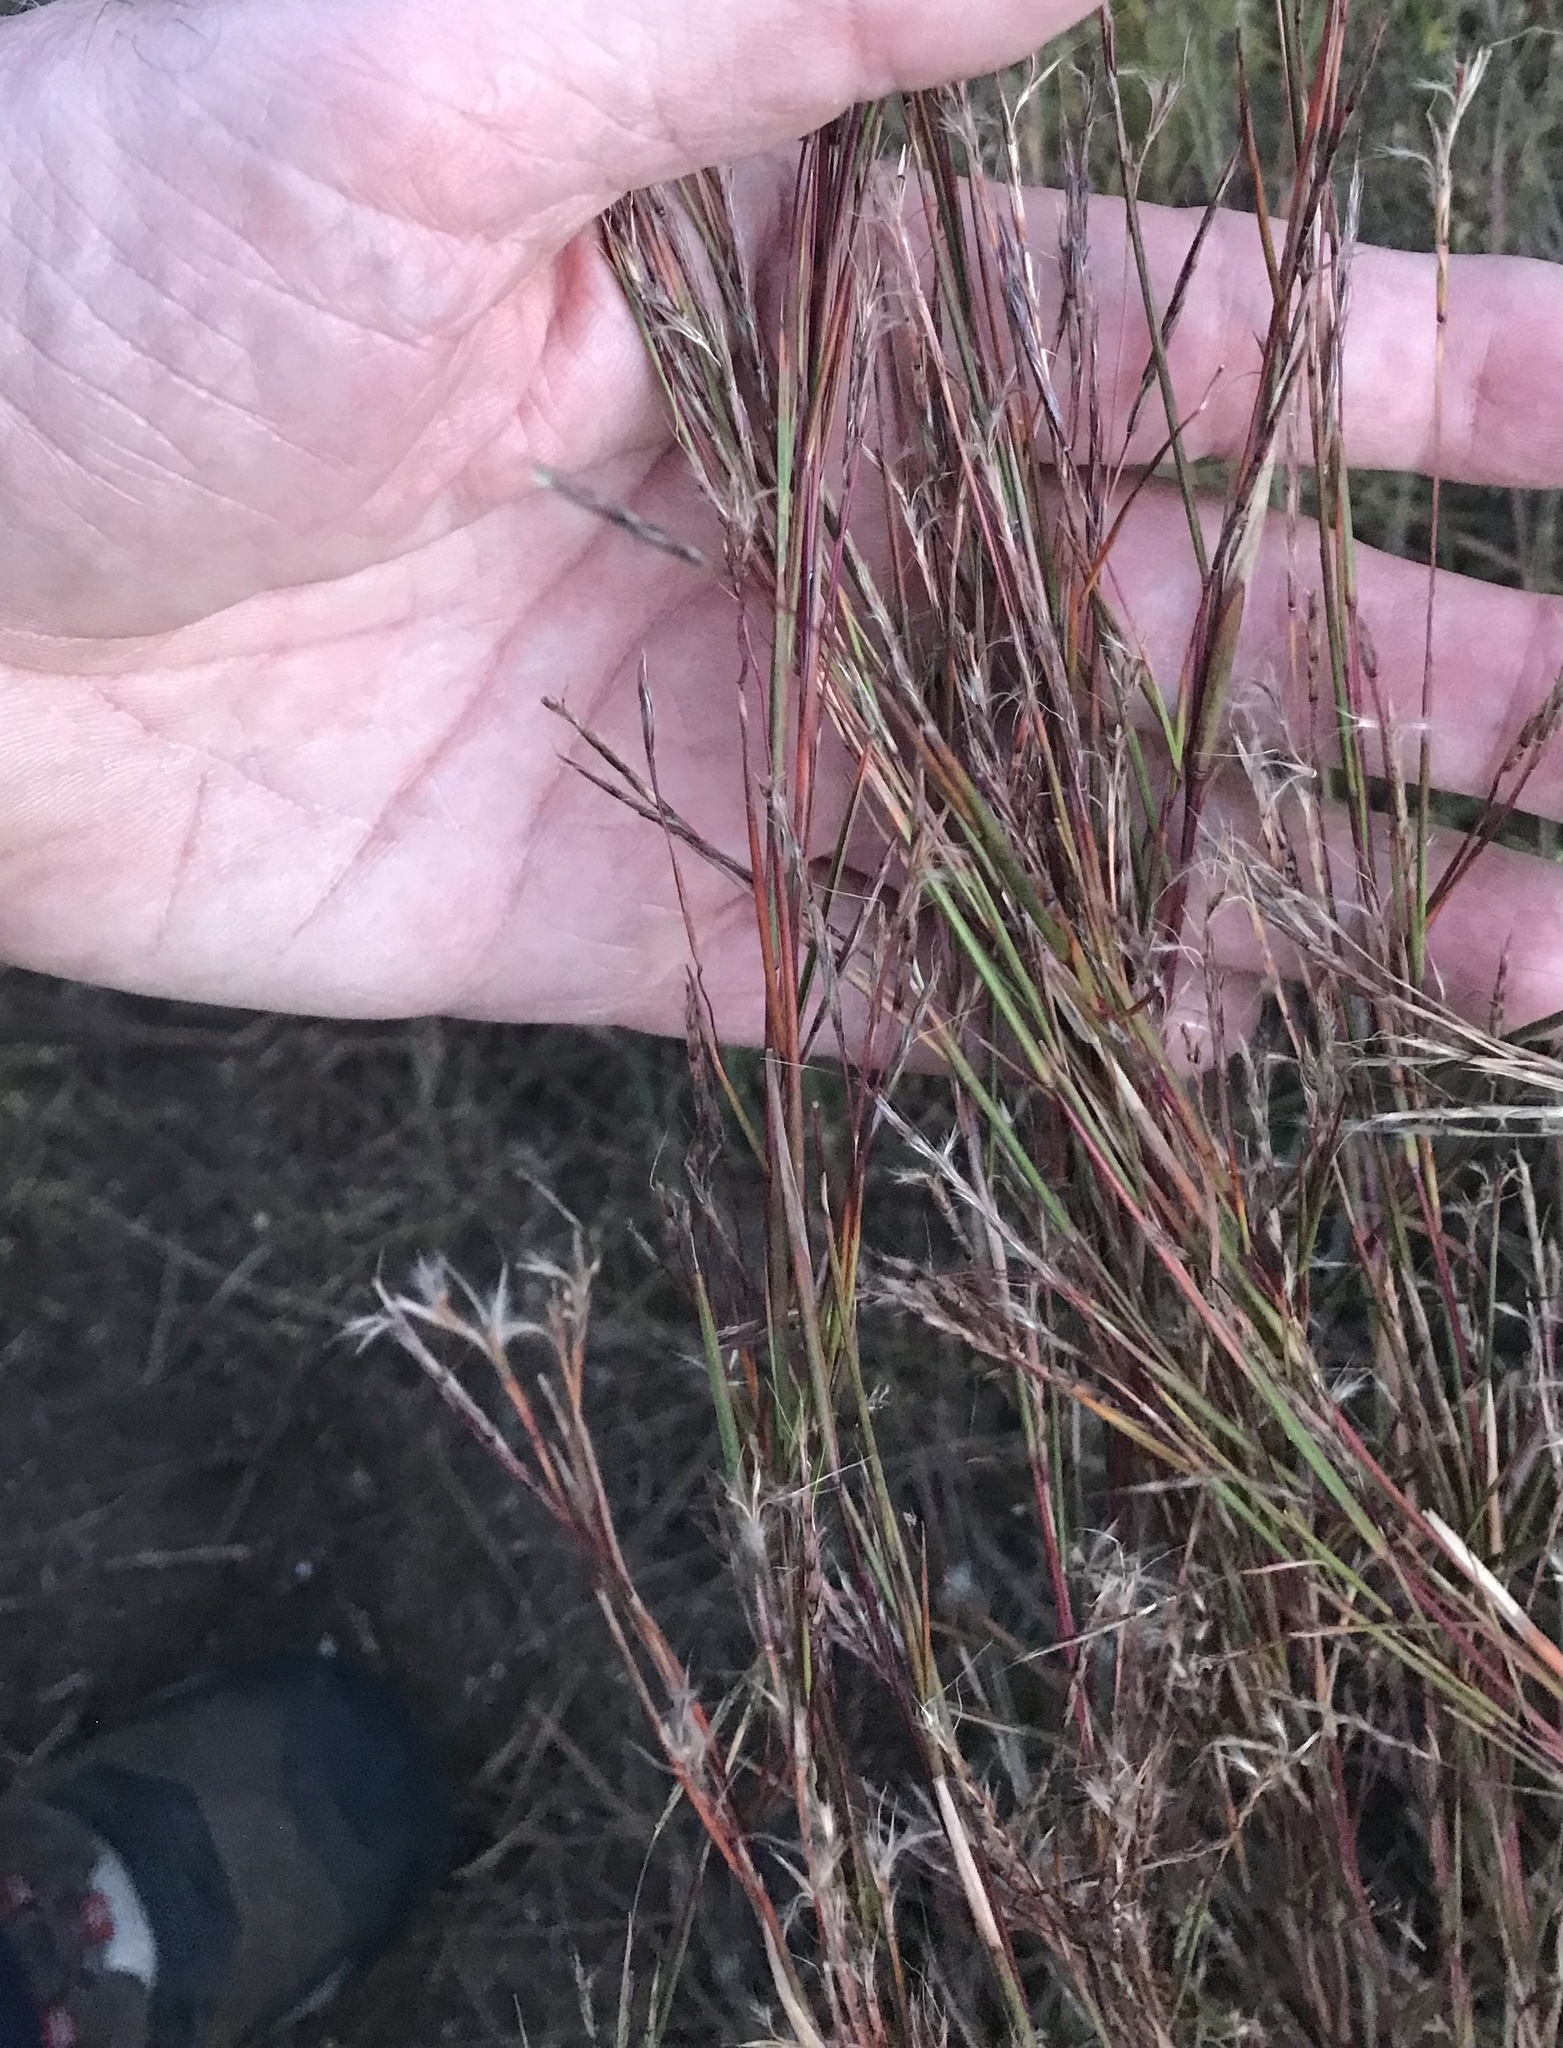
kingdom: Plantae
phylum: Tracheophyta
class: Liliopsida
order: Poales
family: Poaceae
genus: Schizachyrium
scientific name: Schizachyrium scoparium
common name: Little bluestem
